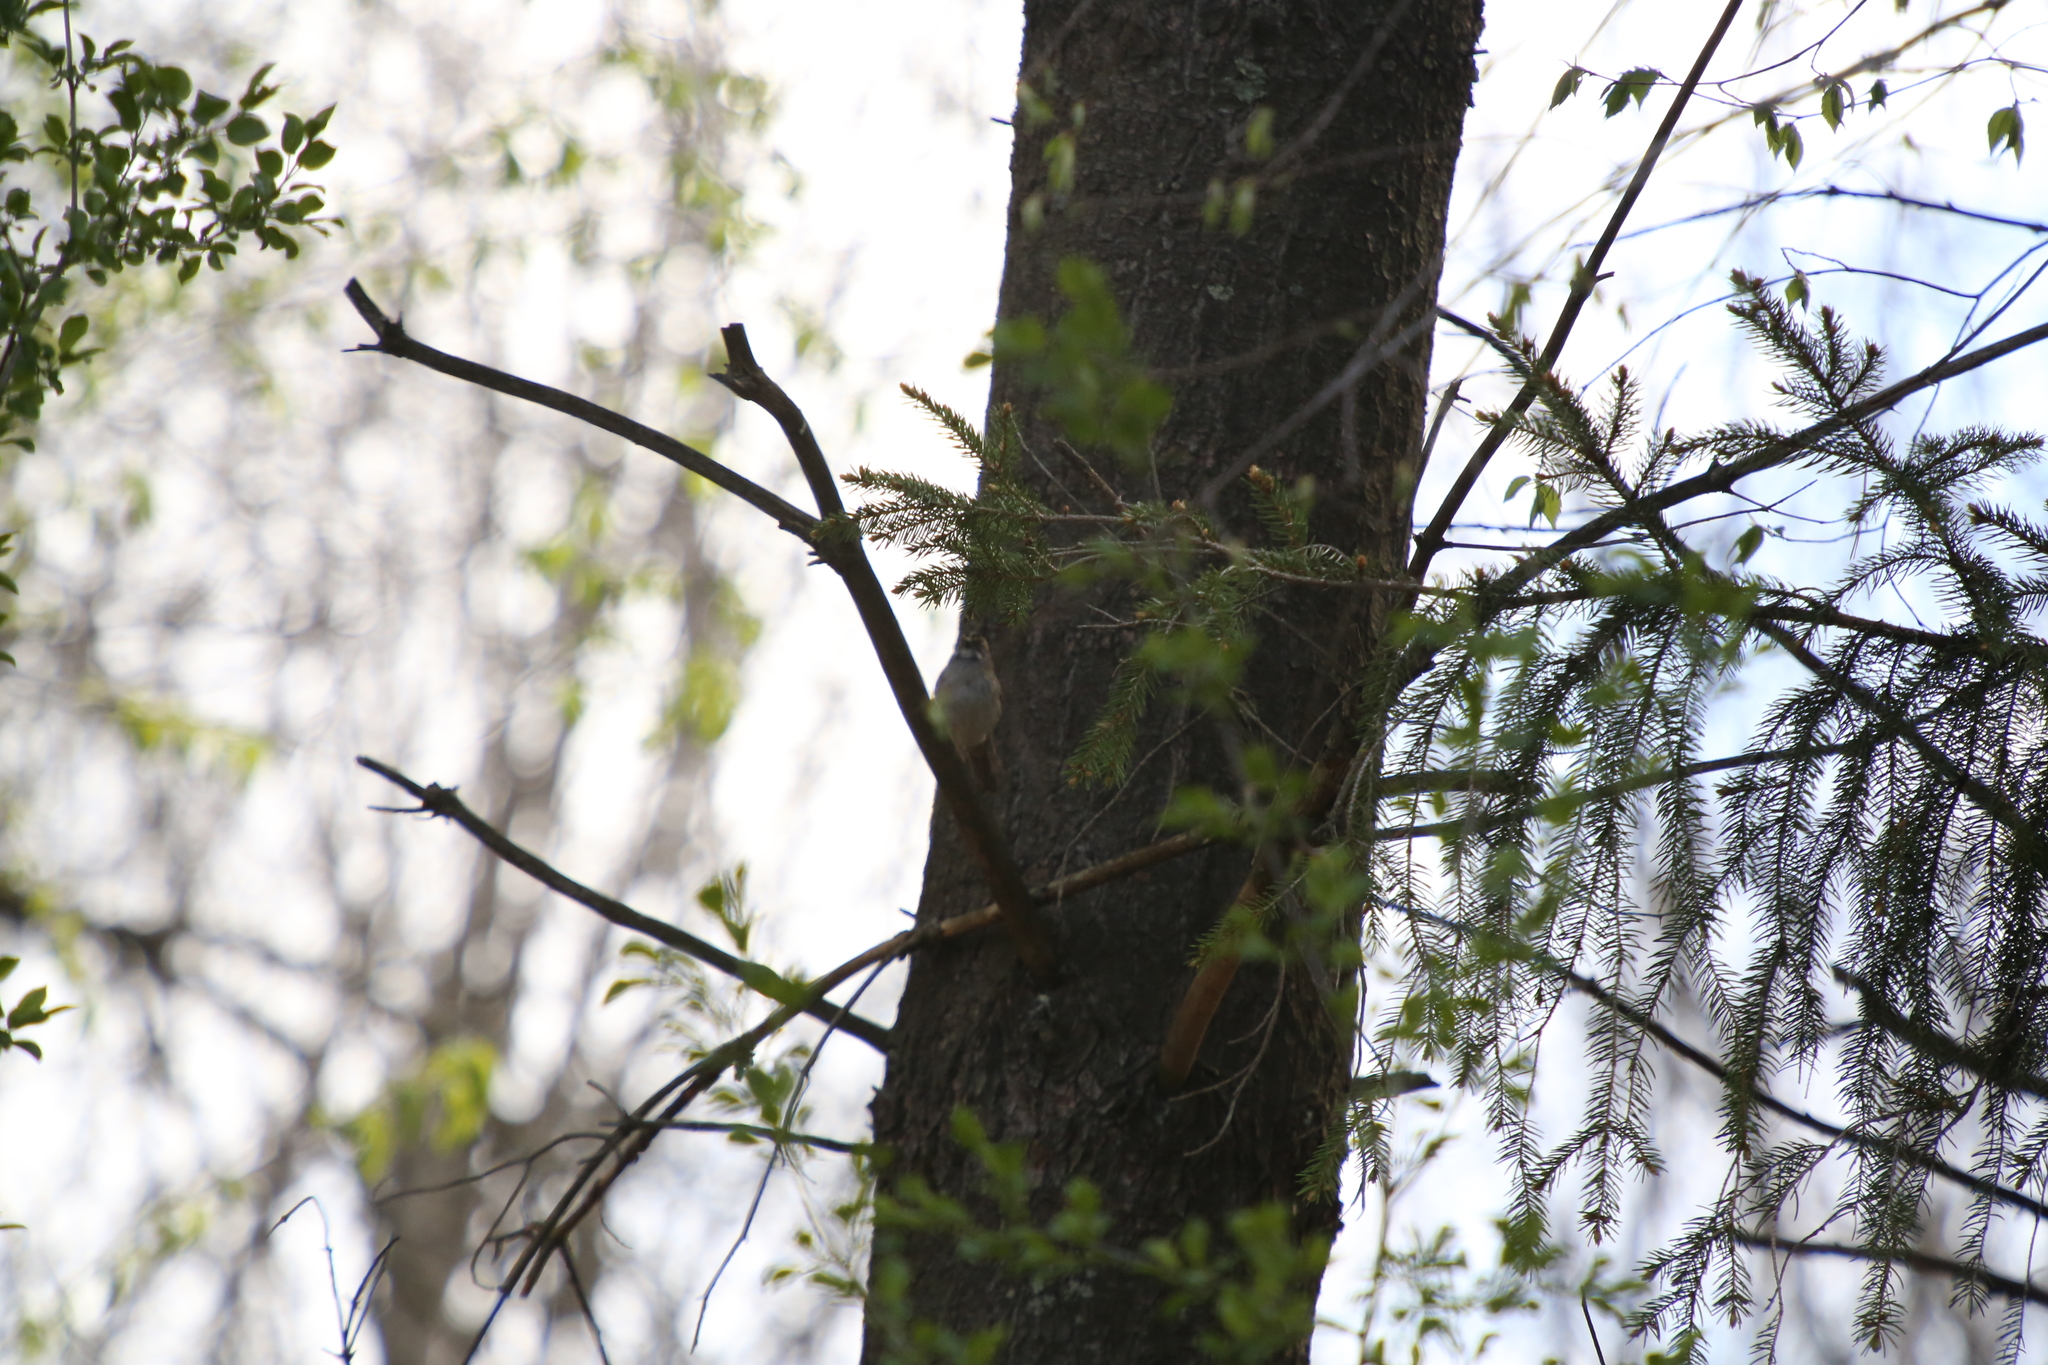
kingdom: Animalia
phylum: Chordata
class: Aves
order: Passeriformes
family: Passerellidae
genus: Zonotrichia
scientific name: Zonotrichia albicollis
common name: White-throated sparrow
